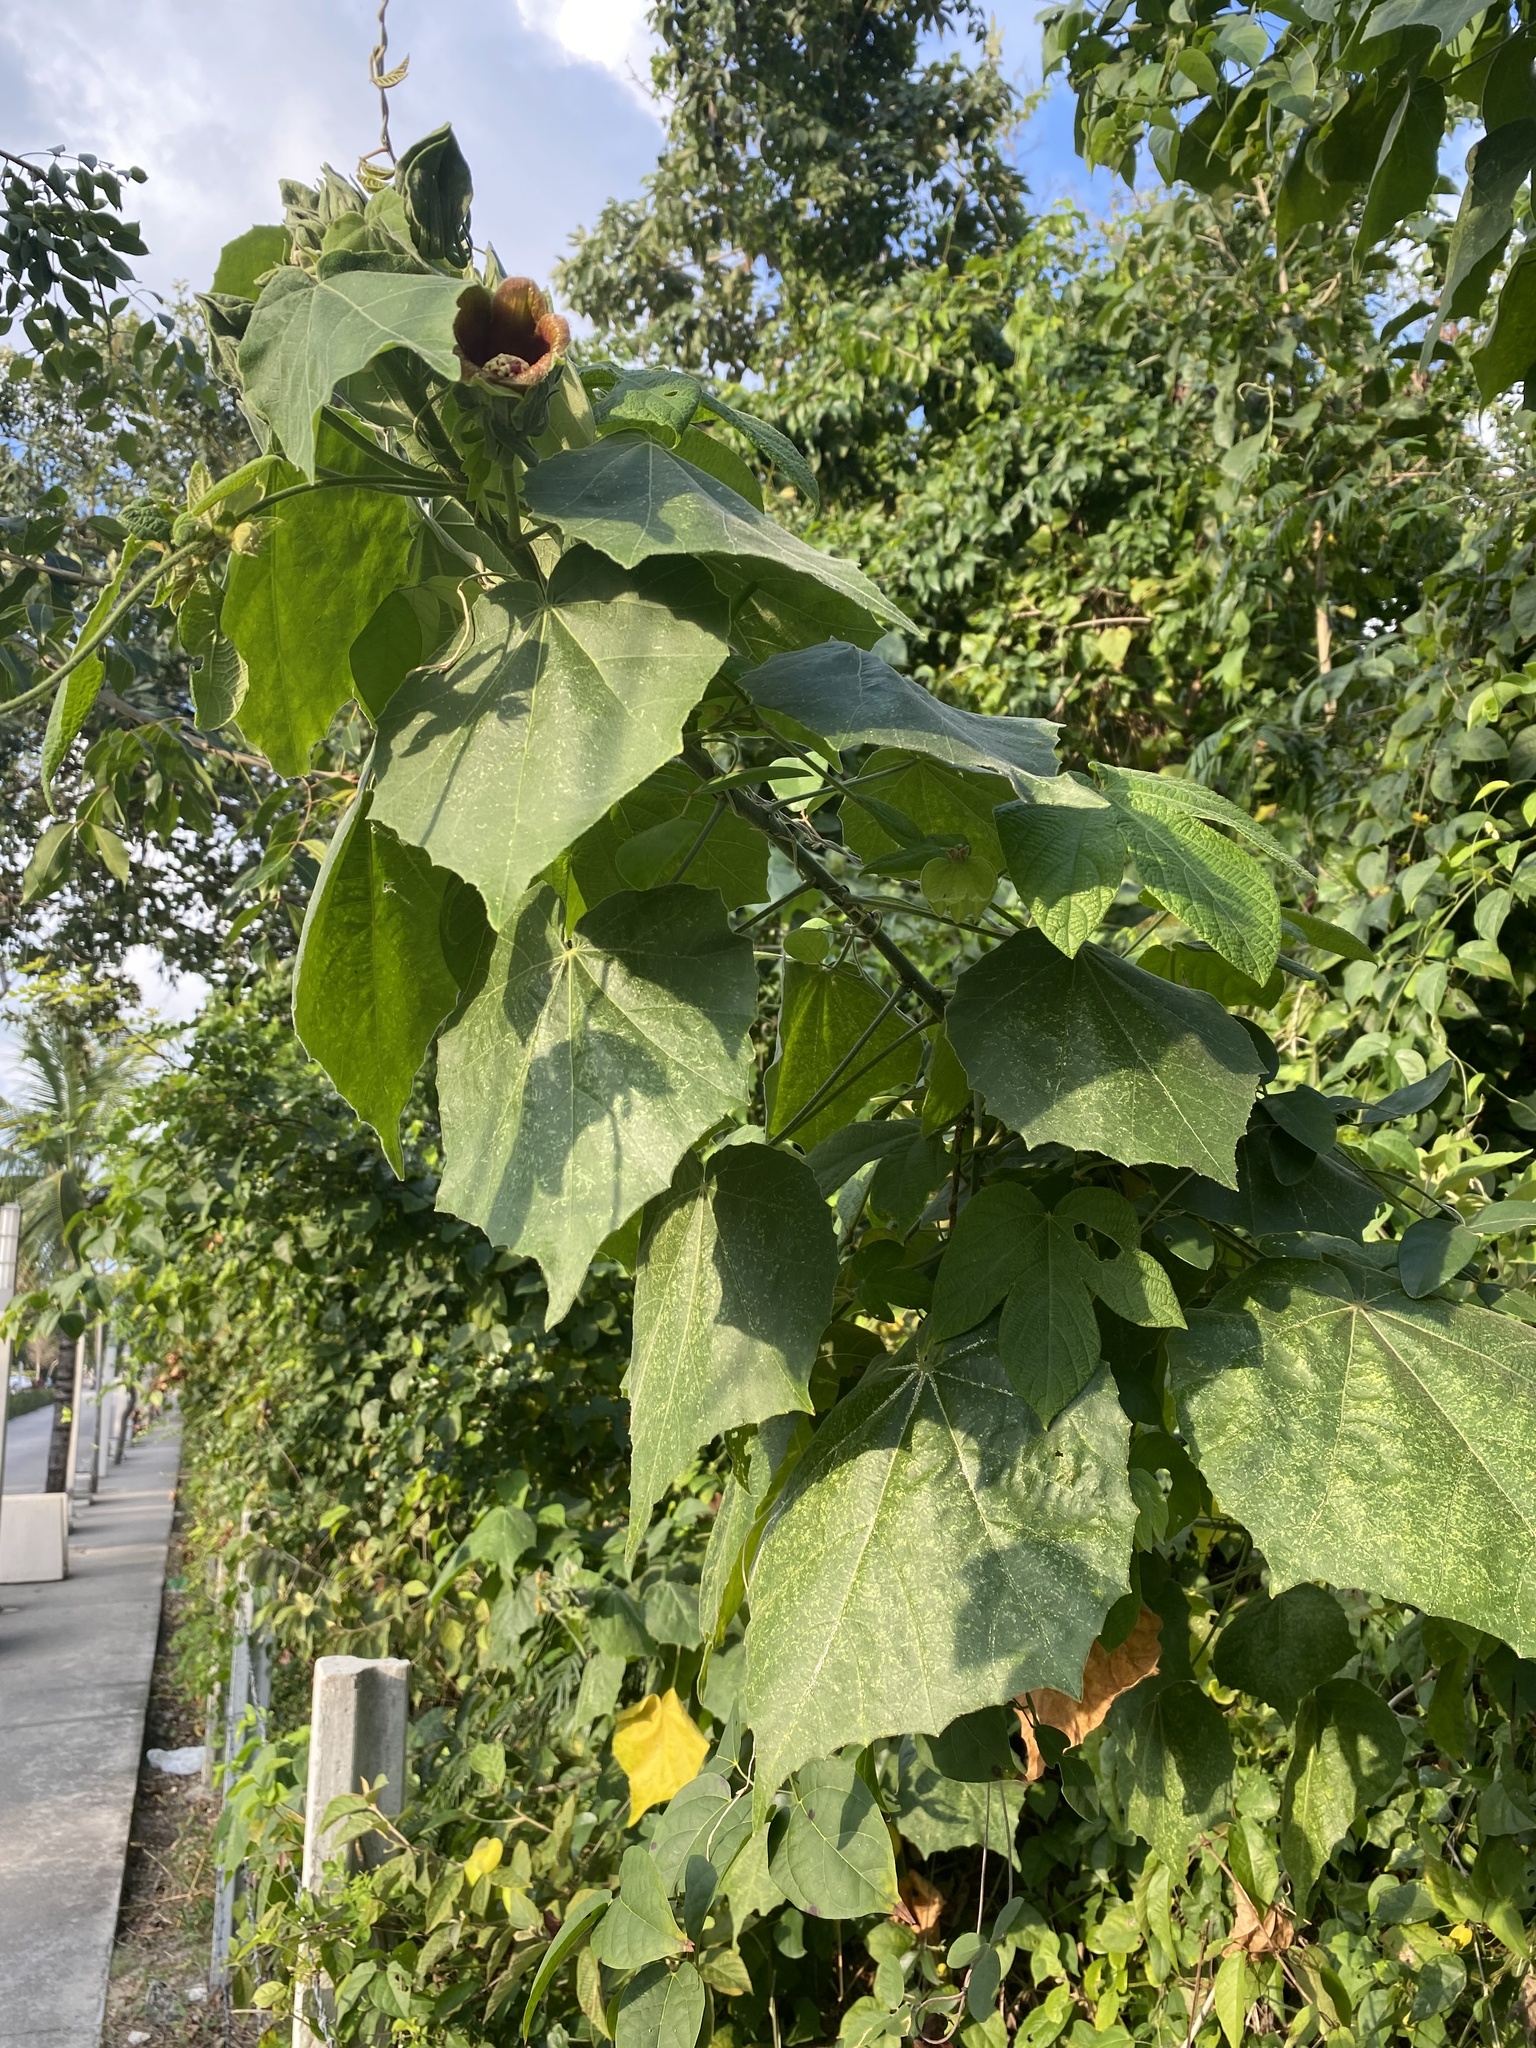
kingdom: Plantae
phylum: Tracheophyta
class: Magnoliopsida
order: Malvales
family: Malvaceae
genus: Hibiscus
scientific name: Hibiscus clypeatus
